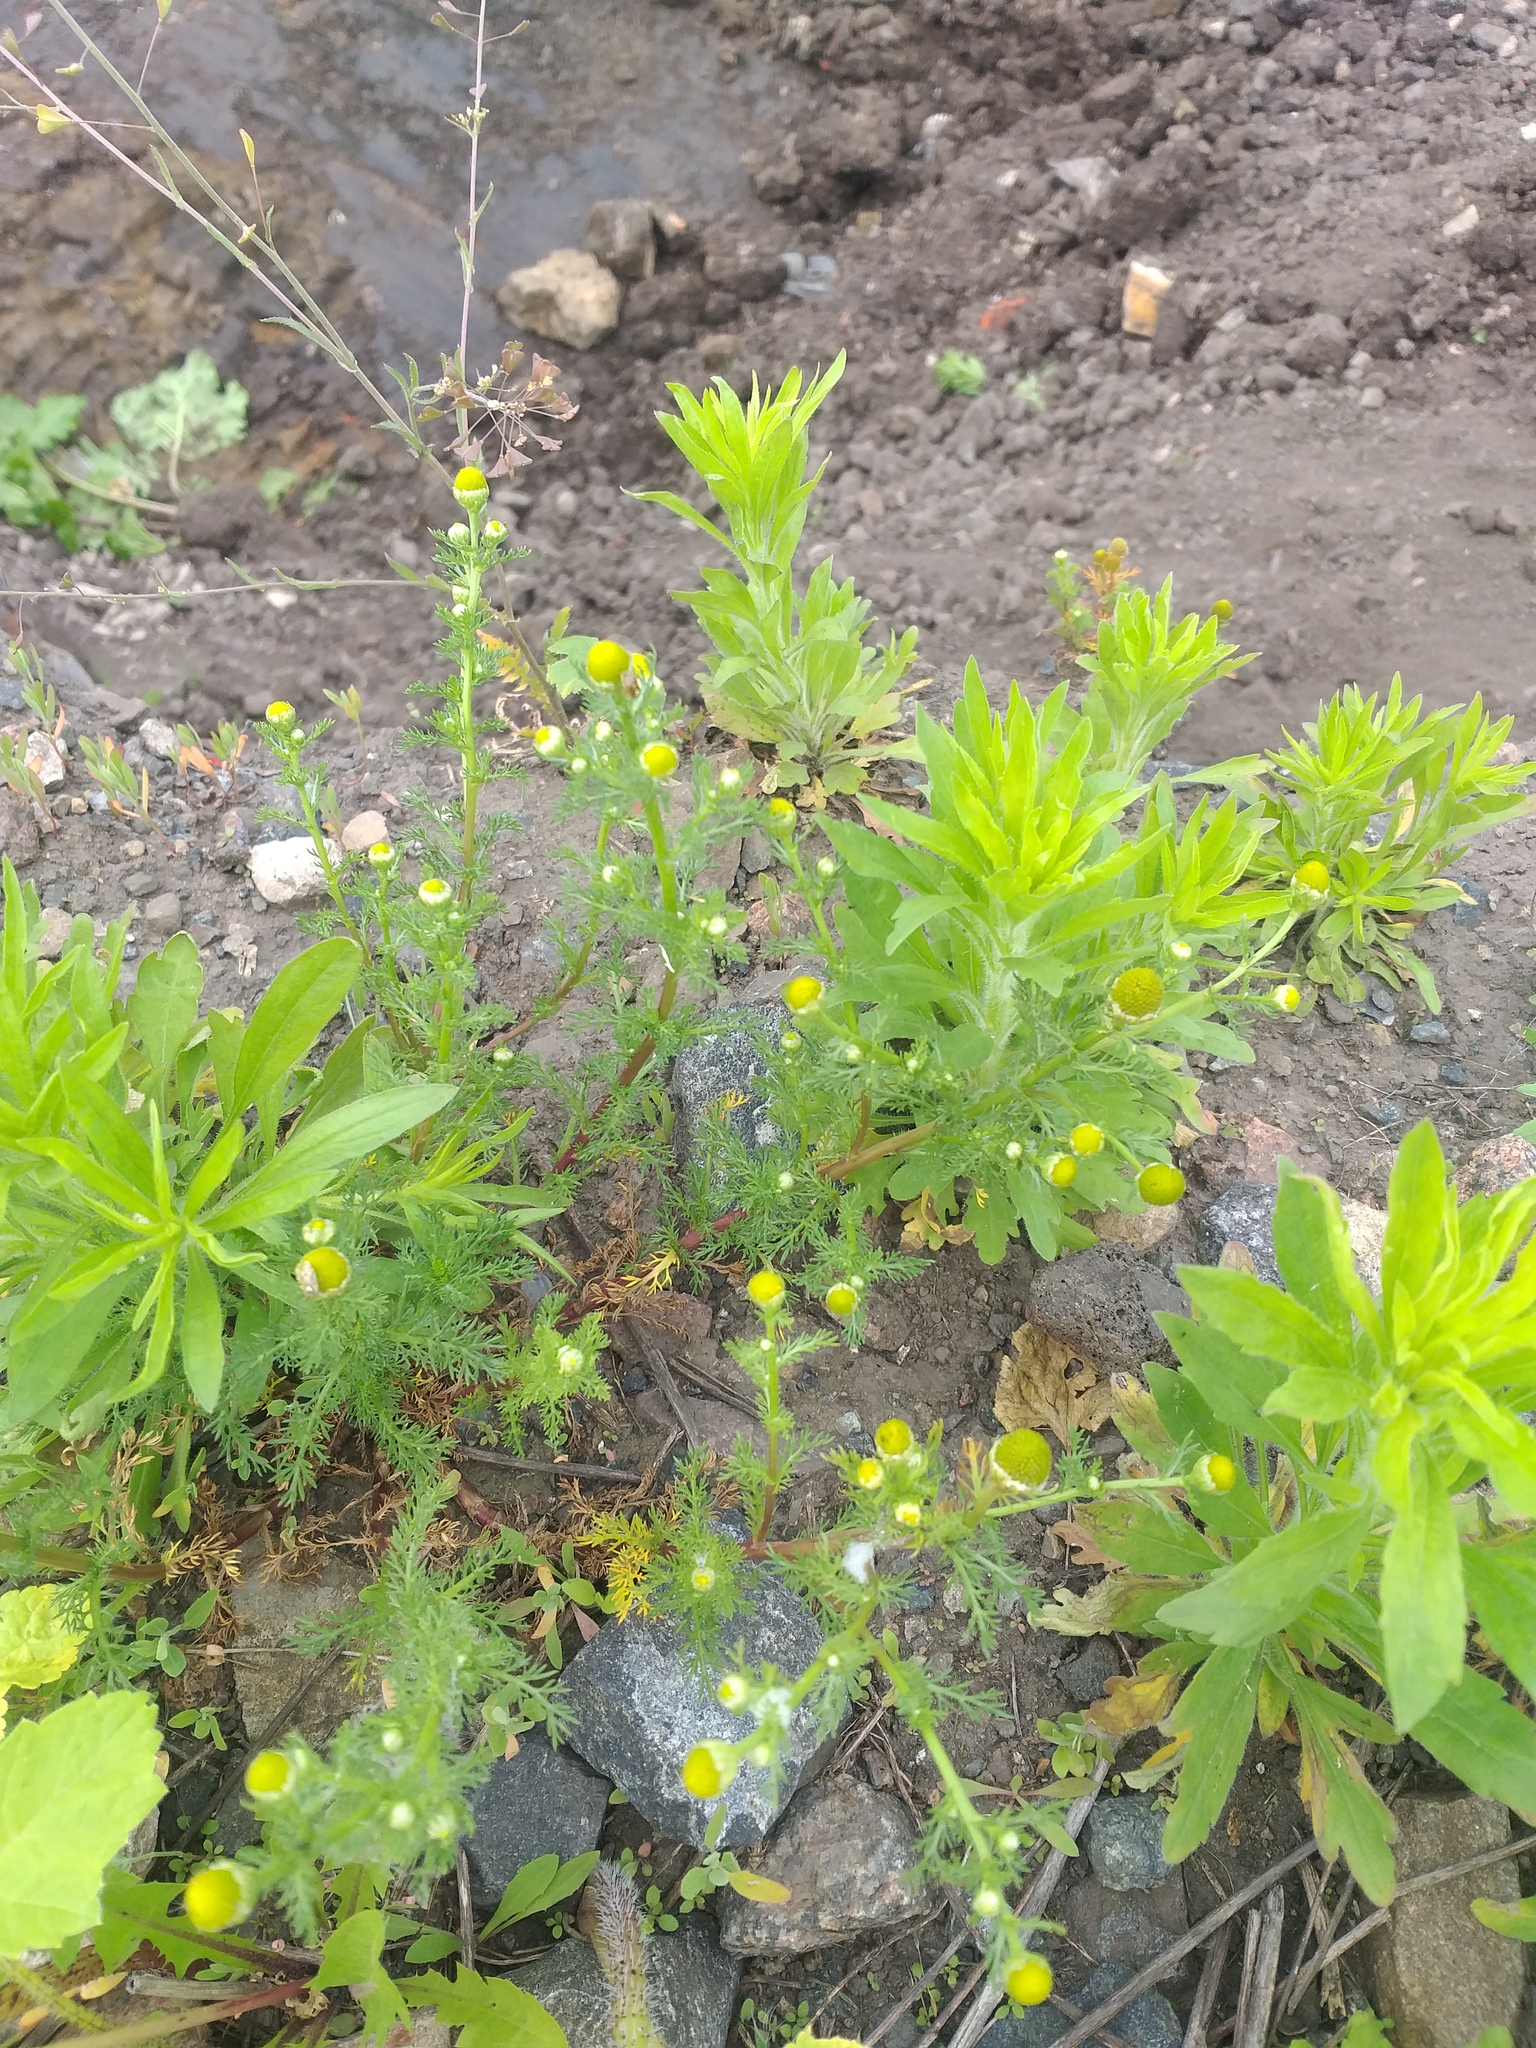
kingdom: Plantae
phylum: Tracheophyta
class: Magnoliopsida
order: Asterales
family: Asteraceae
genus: Matricaria
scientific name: Matricaria discoidea
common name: Disc mayweed
